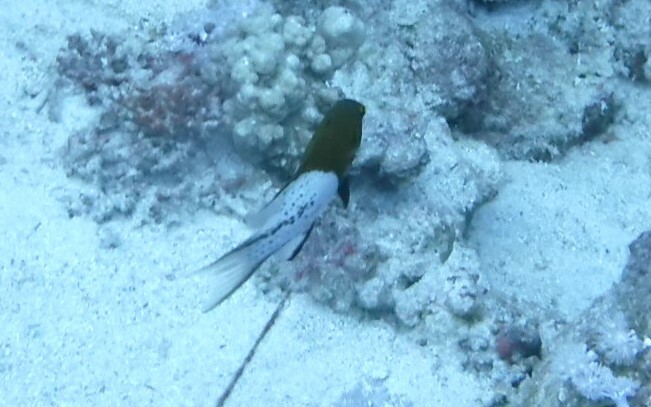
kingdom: Animalia
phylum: Chordata
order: Perciformes
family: Labridae
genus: Bodianus
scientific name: Bodianus anthioides
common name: Lyretail hogfish
